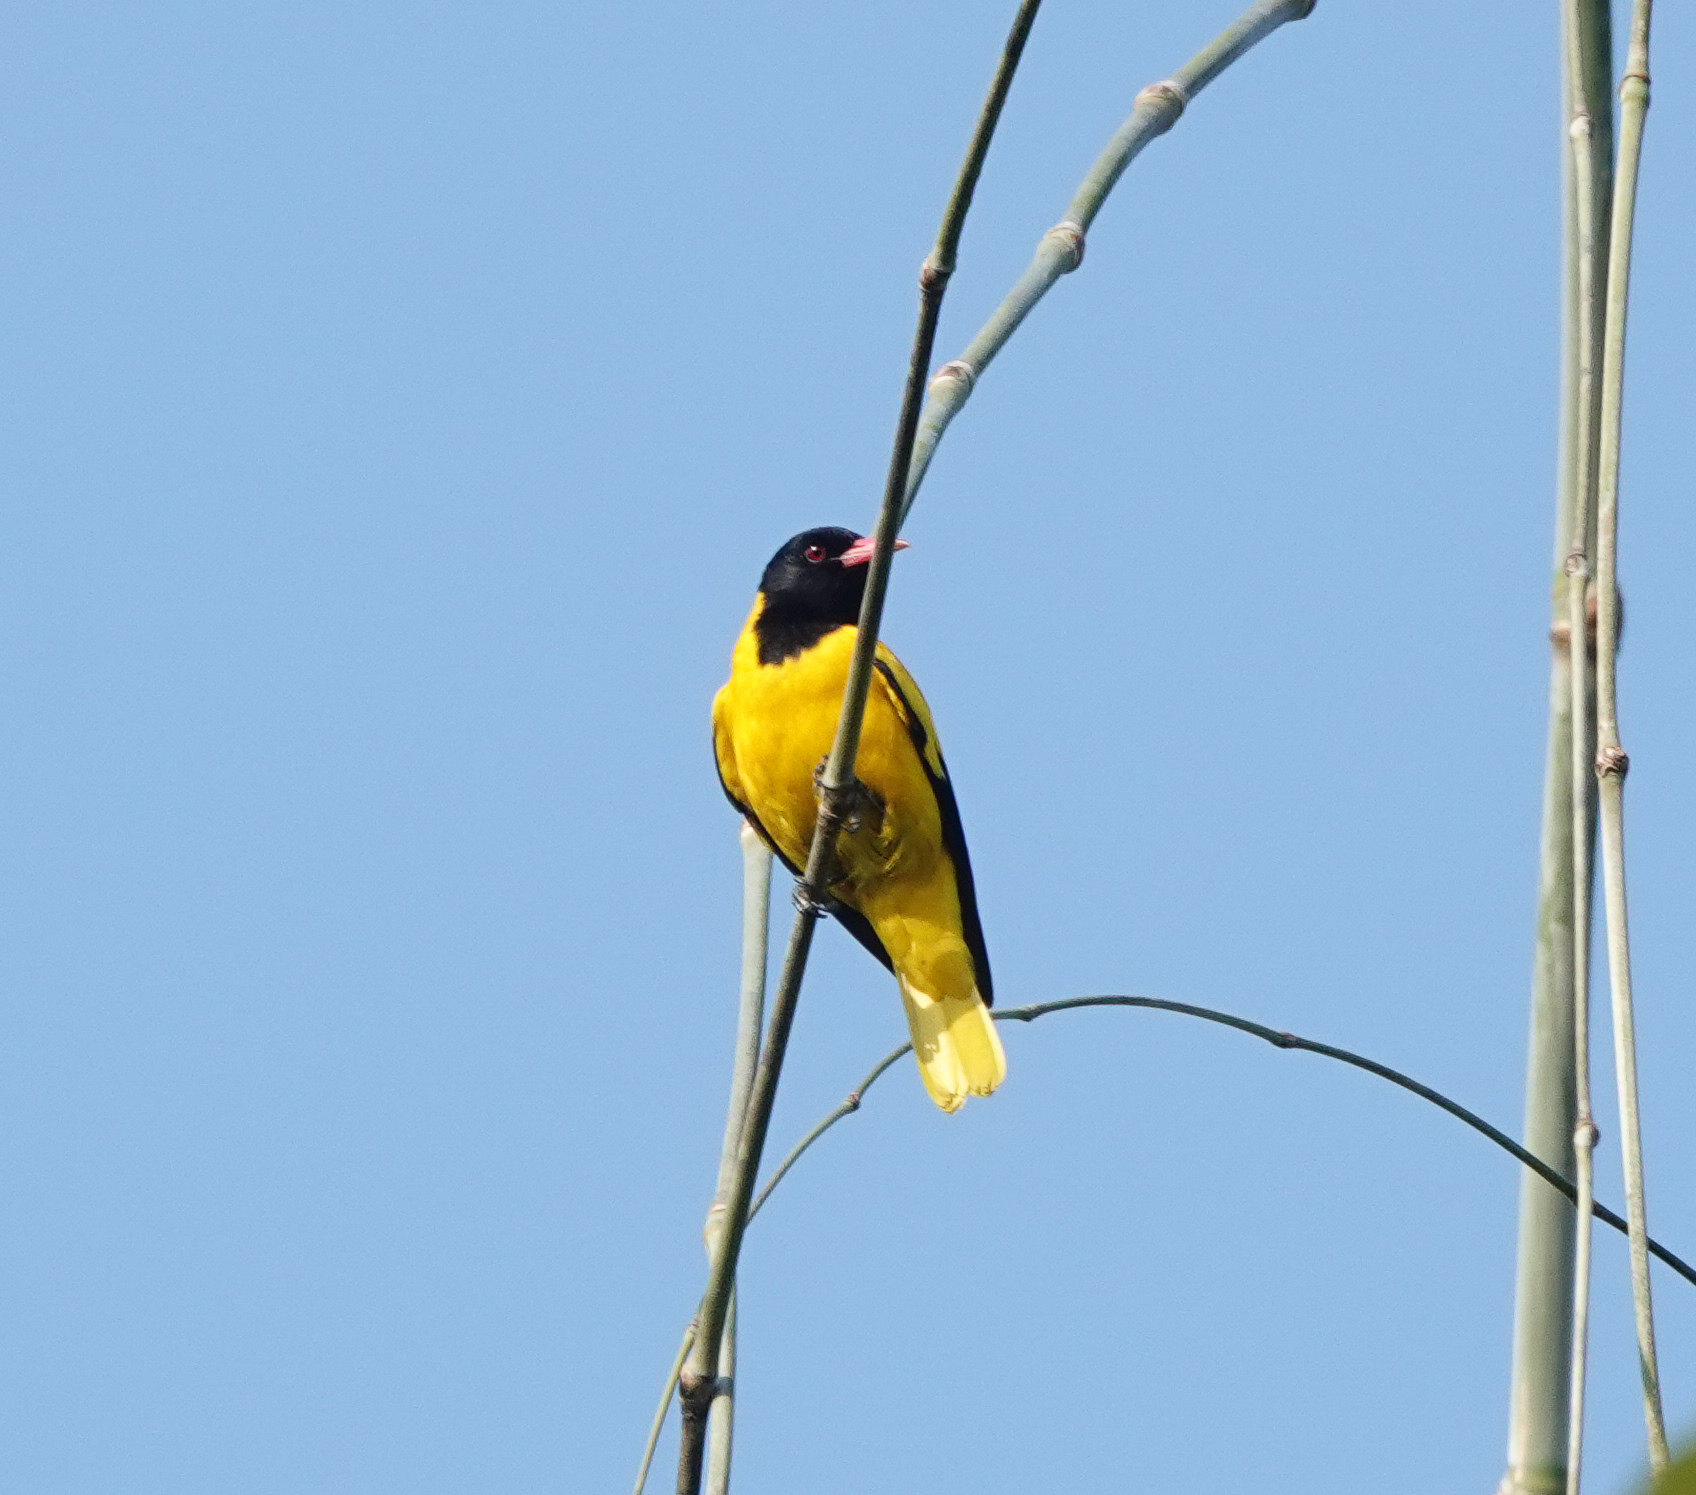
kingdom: Animalia
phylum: Chordata
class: Aves
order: Passeriformes
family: Oriolidae
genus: Oriolus
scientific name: Oriolus xanthornus
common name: Black-hooded oriole
